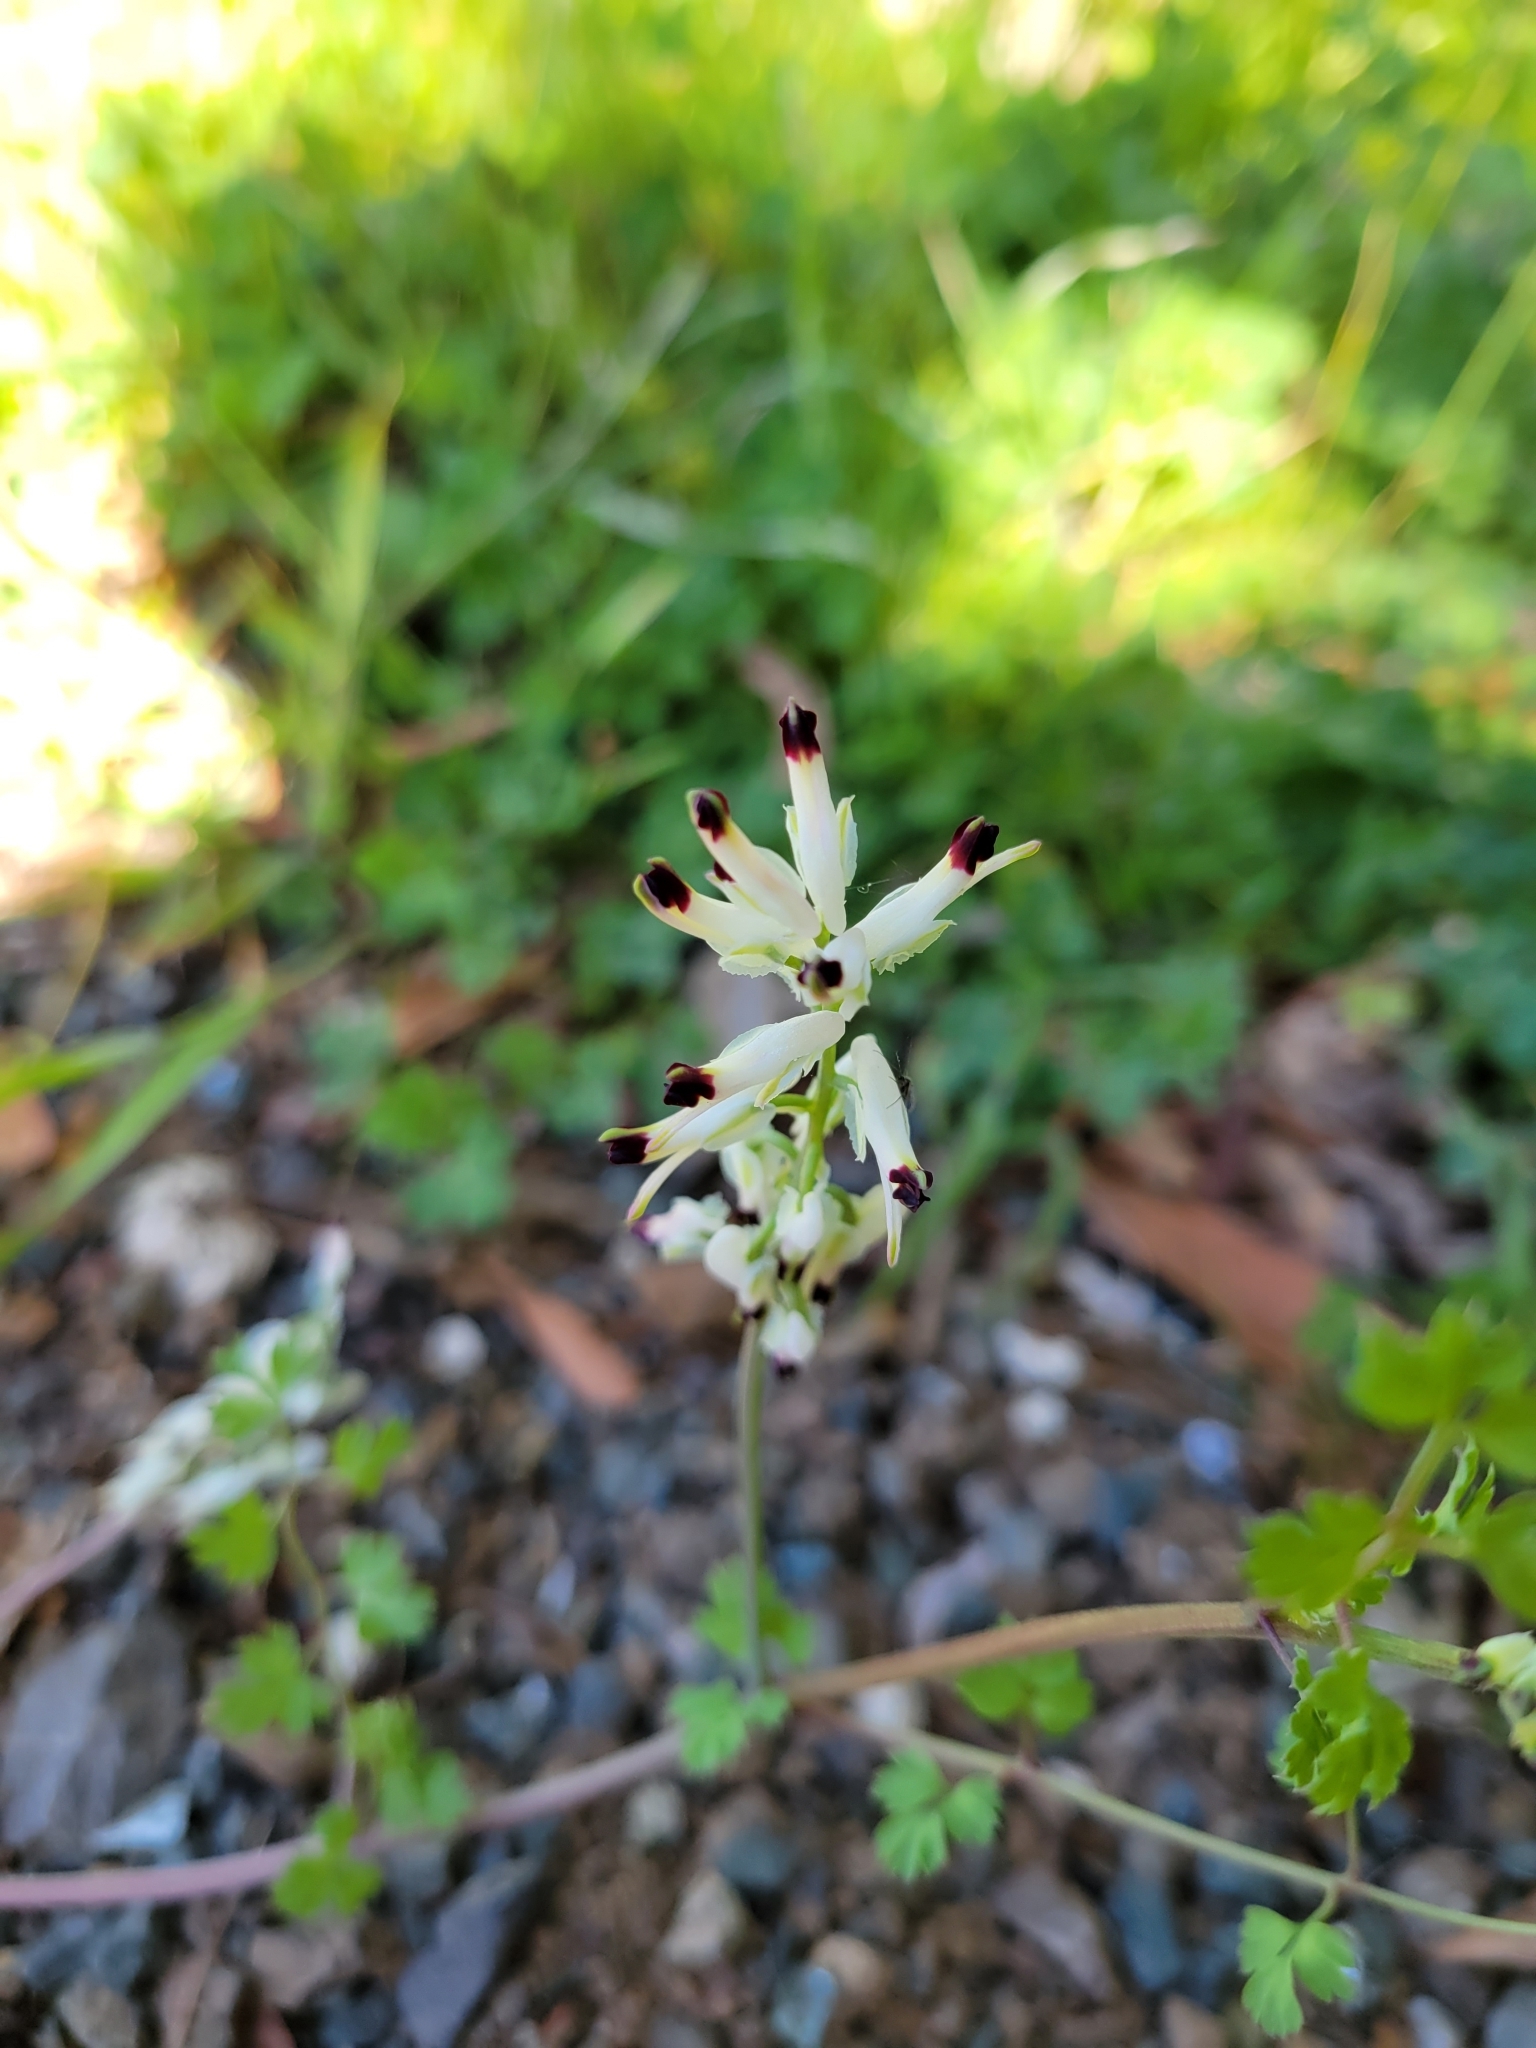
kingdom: Plantae
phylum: Tracheophyta
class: Magnoliopsida
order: Ranunculales
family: Papaveraceae
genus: Fumaria
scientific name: Fumaria capreolata
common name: White ramping-fumitory
